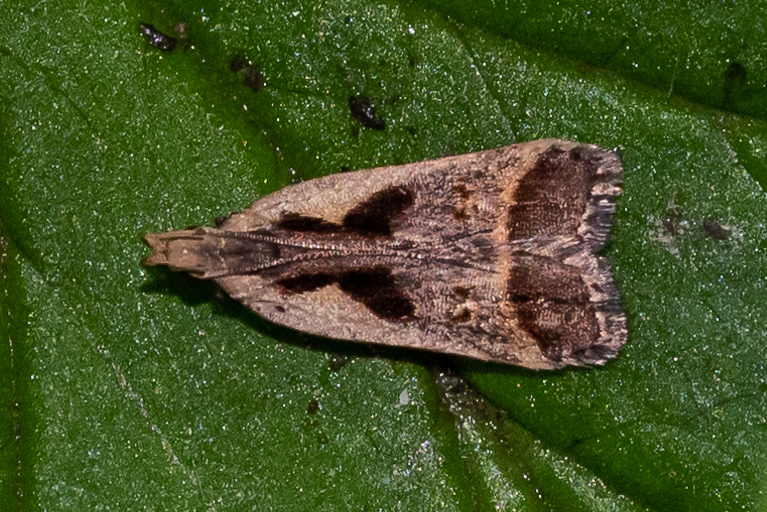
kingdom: Animalia
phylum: Arthropoda
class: Insecta
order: Lepidoptera
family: Gelechiidae
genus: Dichomeris
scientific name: Dichomeris bilobella
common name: Bilobed dichomeris moth
